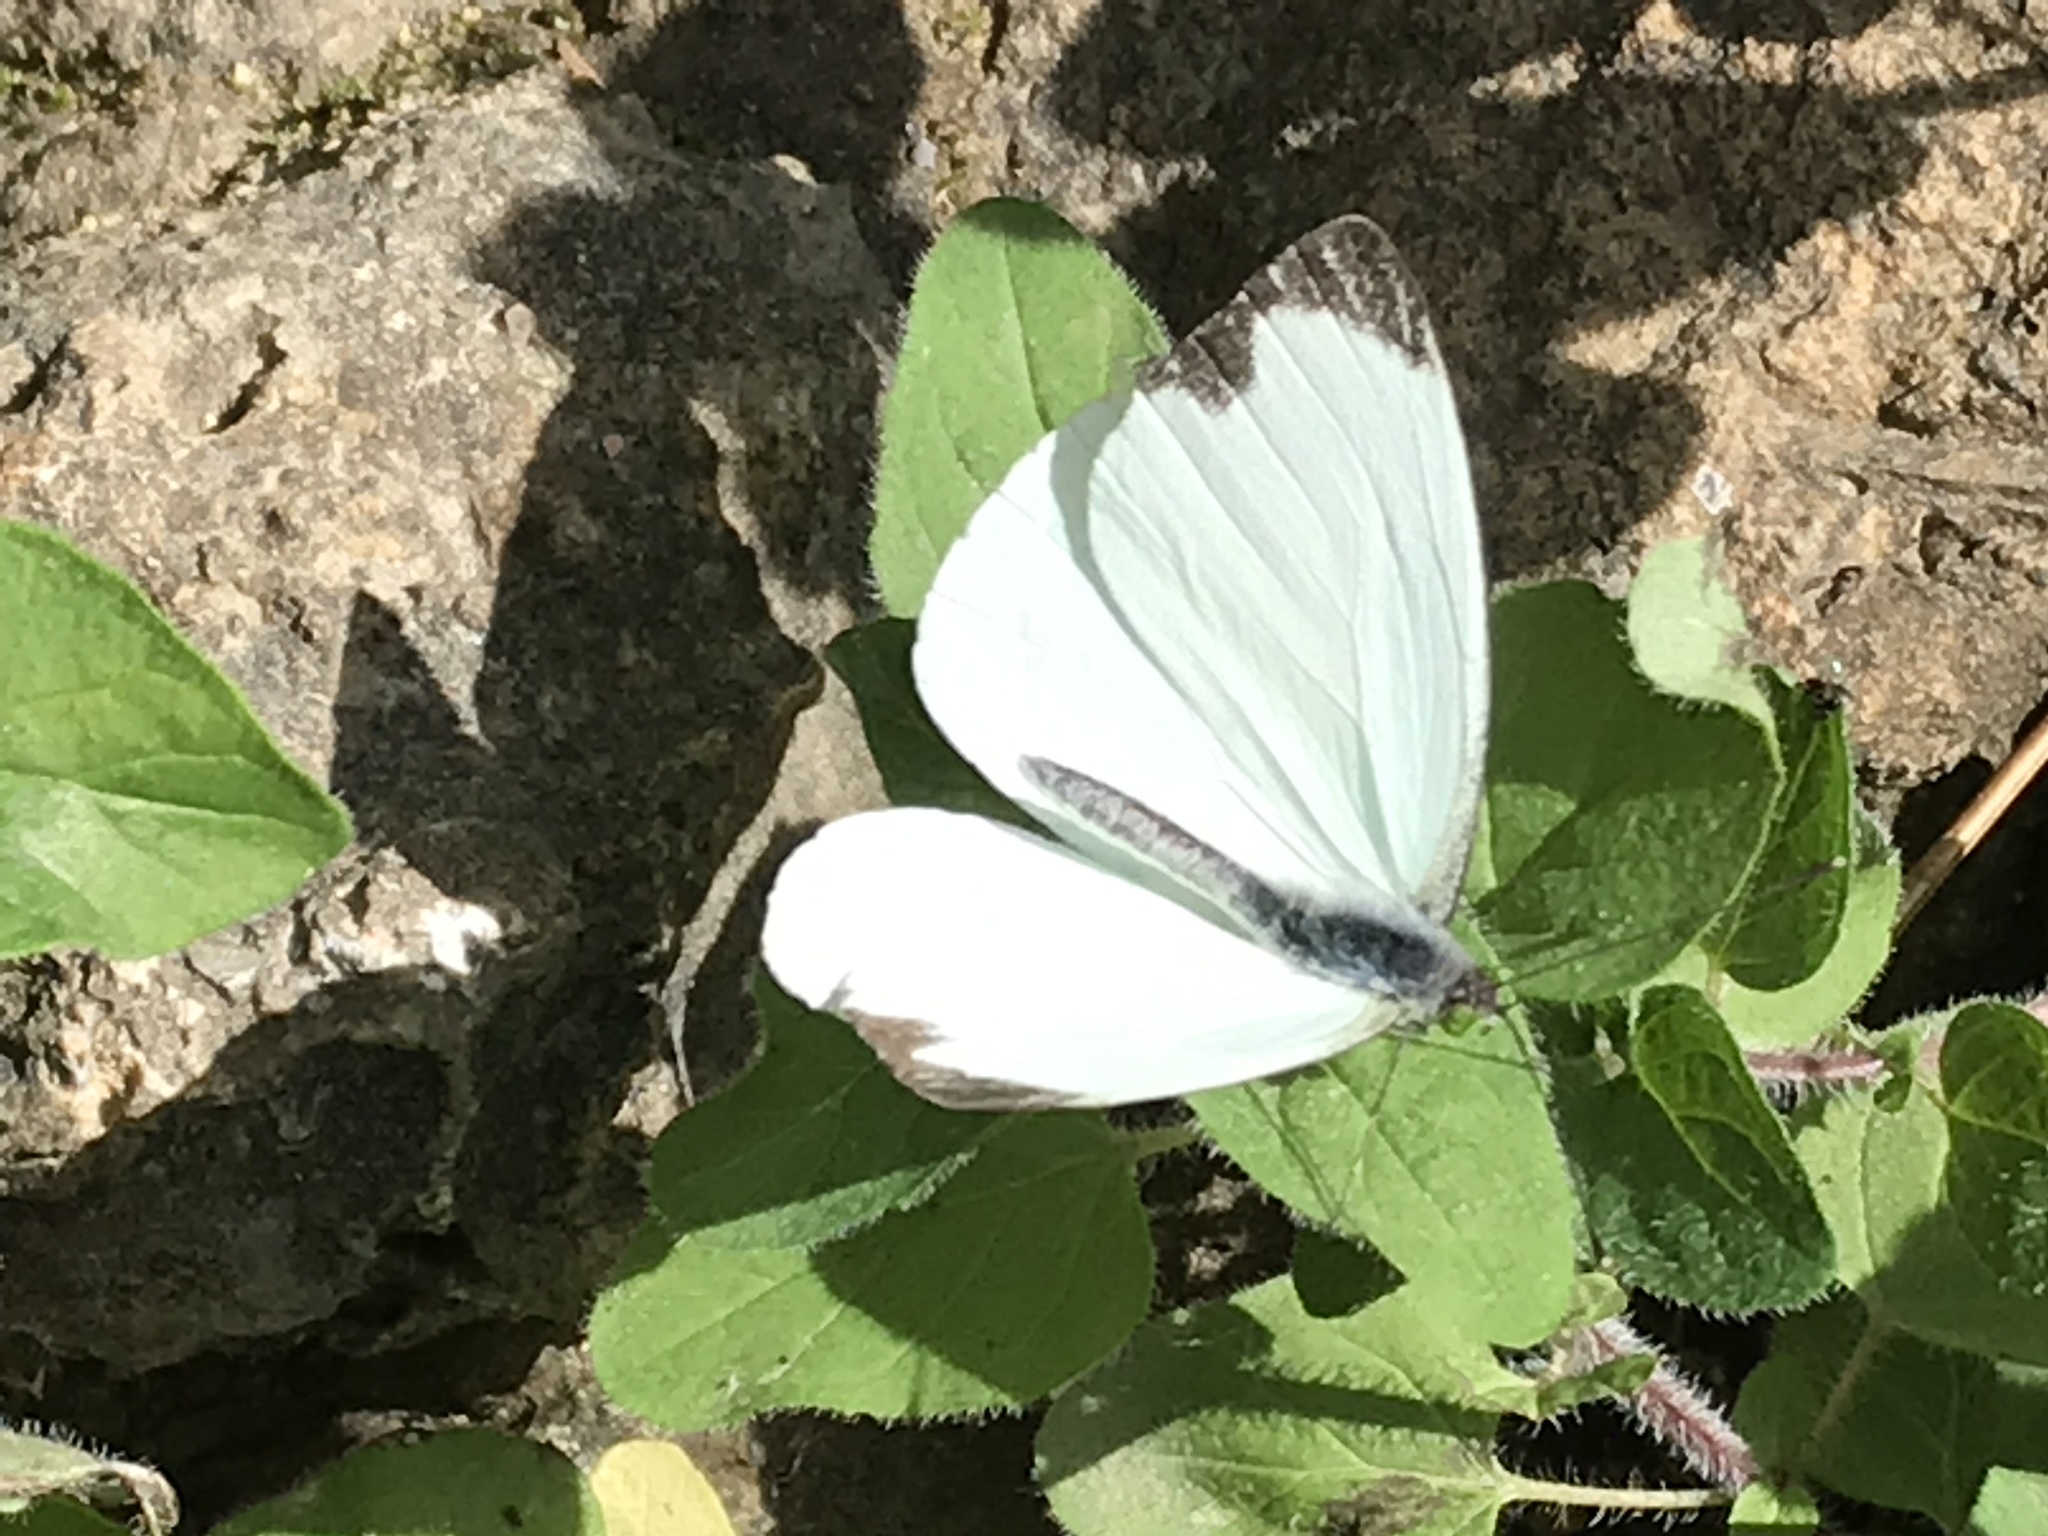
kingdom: Animalia
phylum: Arthropoda
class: Insecta
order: Lepidoptera
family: Pieridae
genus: Leptophobia
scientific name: Leptophobia aripa
